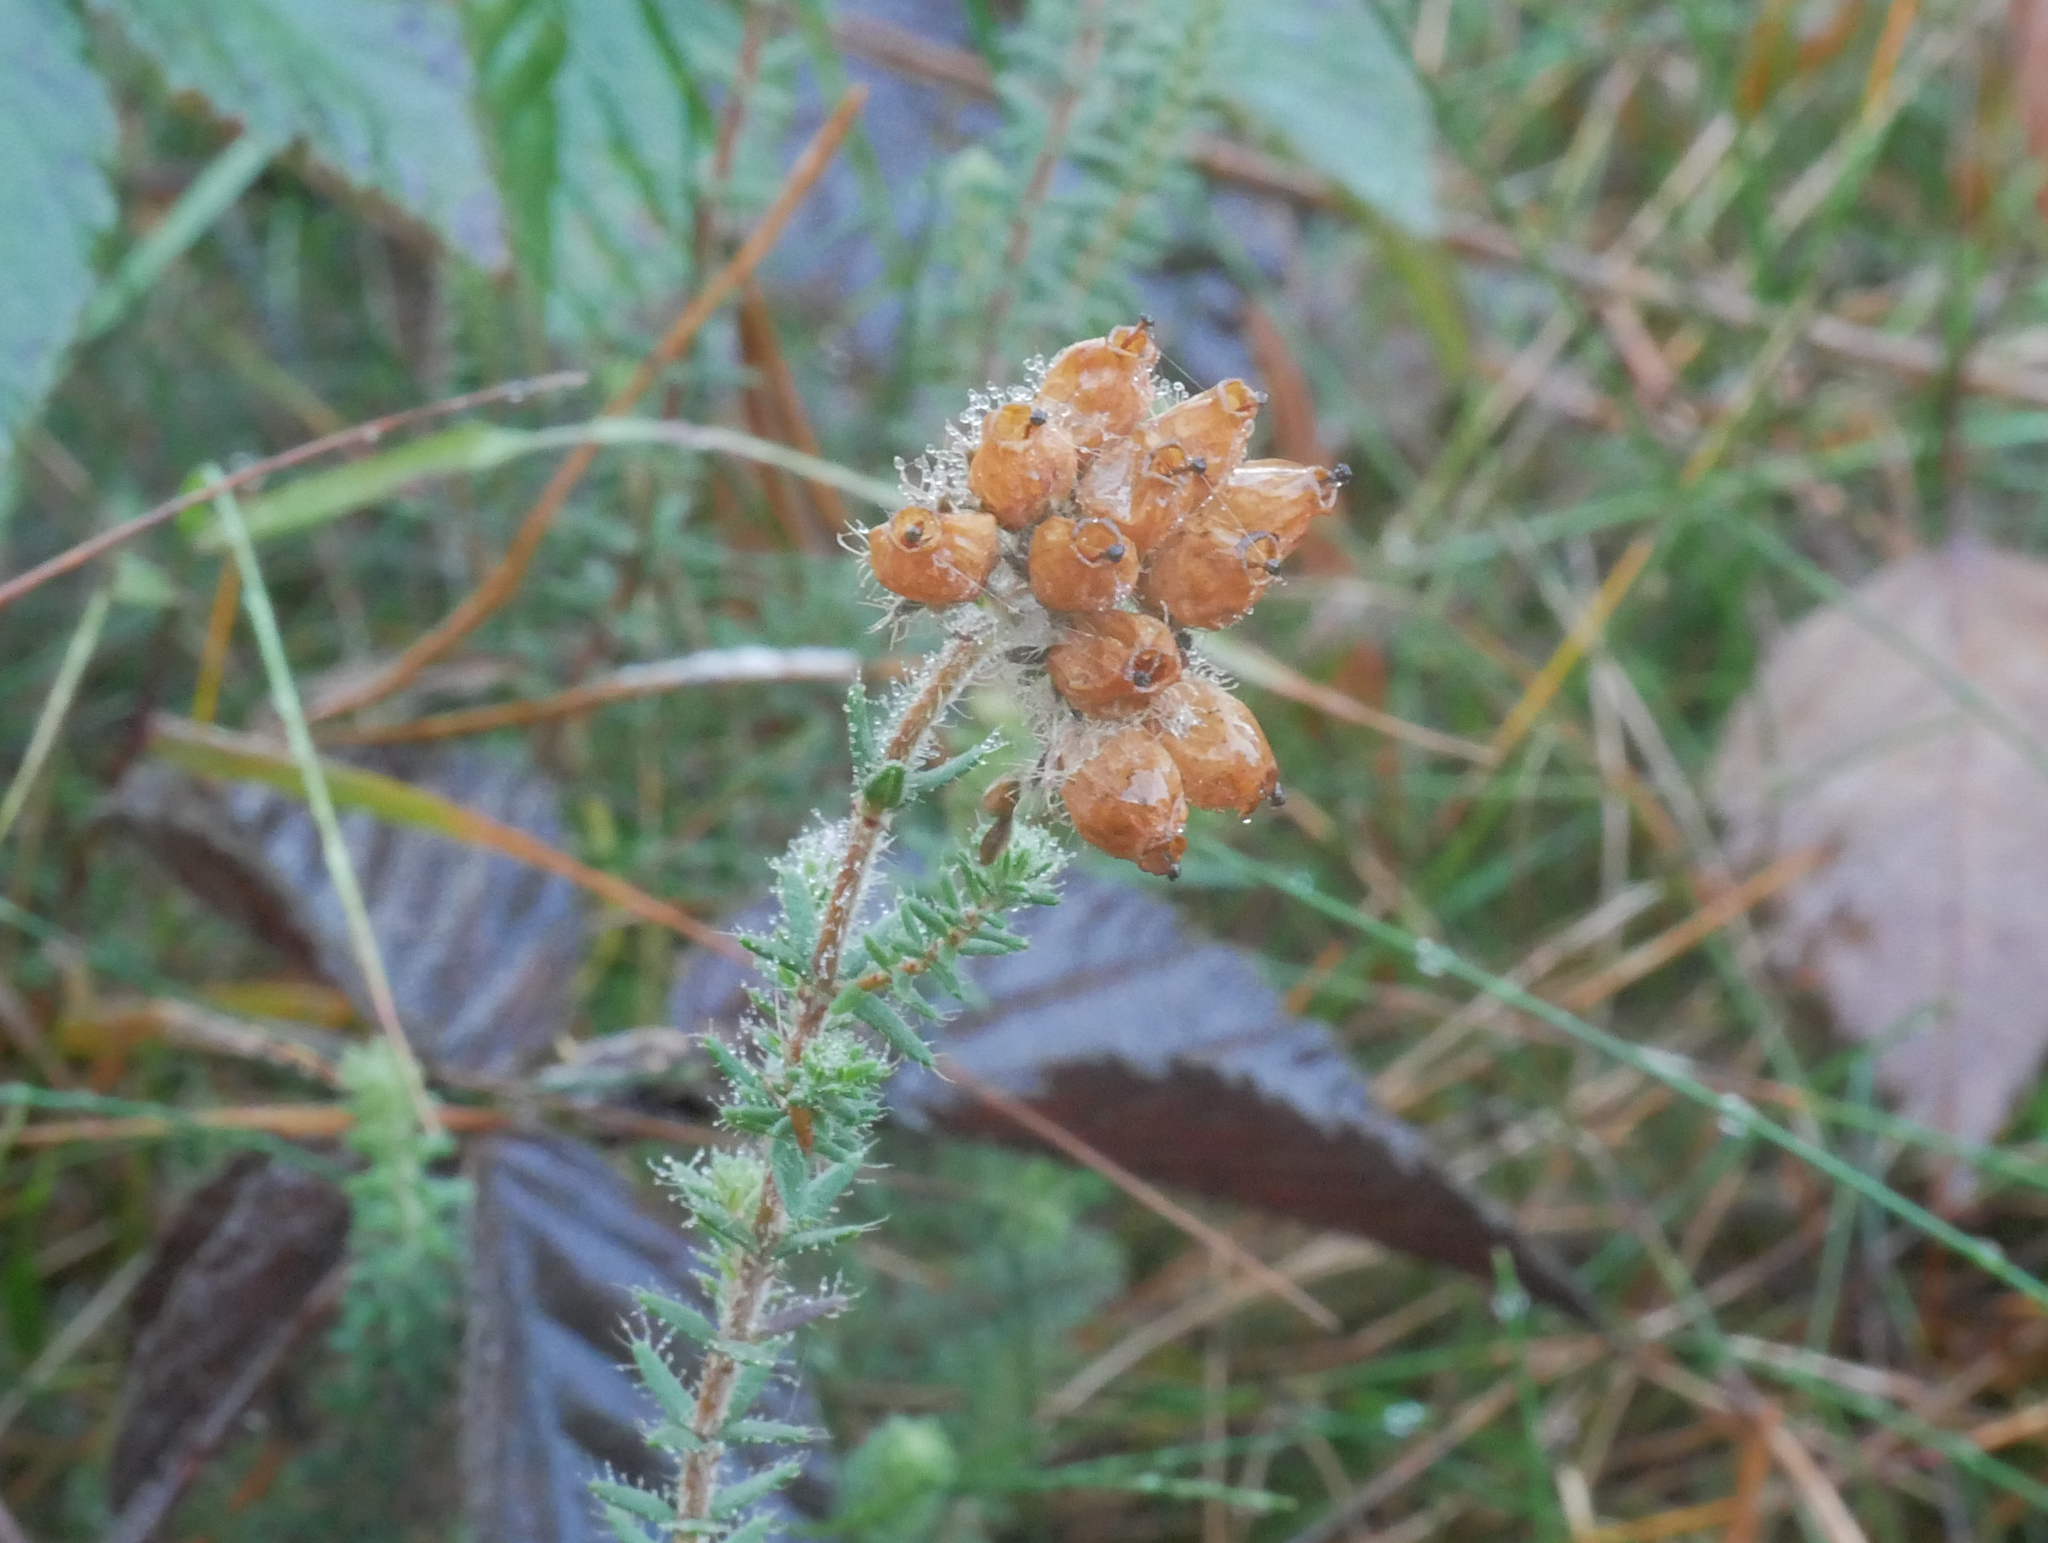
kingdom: Plantae
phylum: Tracheophyta
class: Magnoliopsida
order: Ericales
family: Ericaceae
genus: Erica
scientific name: Erica tetralix
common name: Cross-leaved heath
